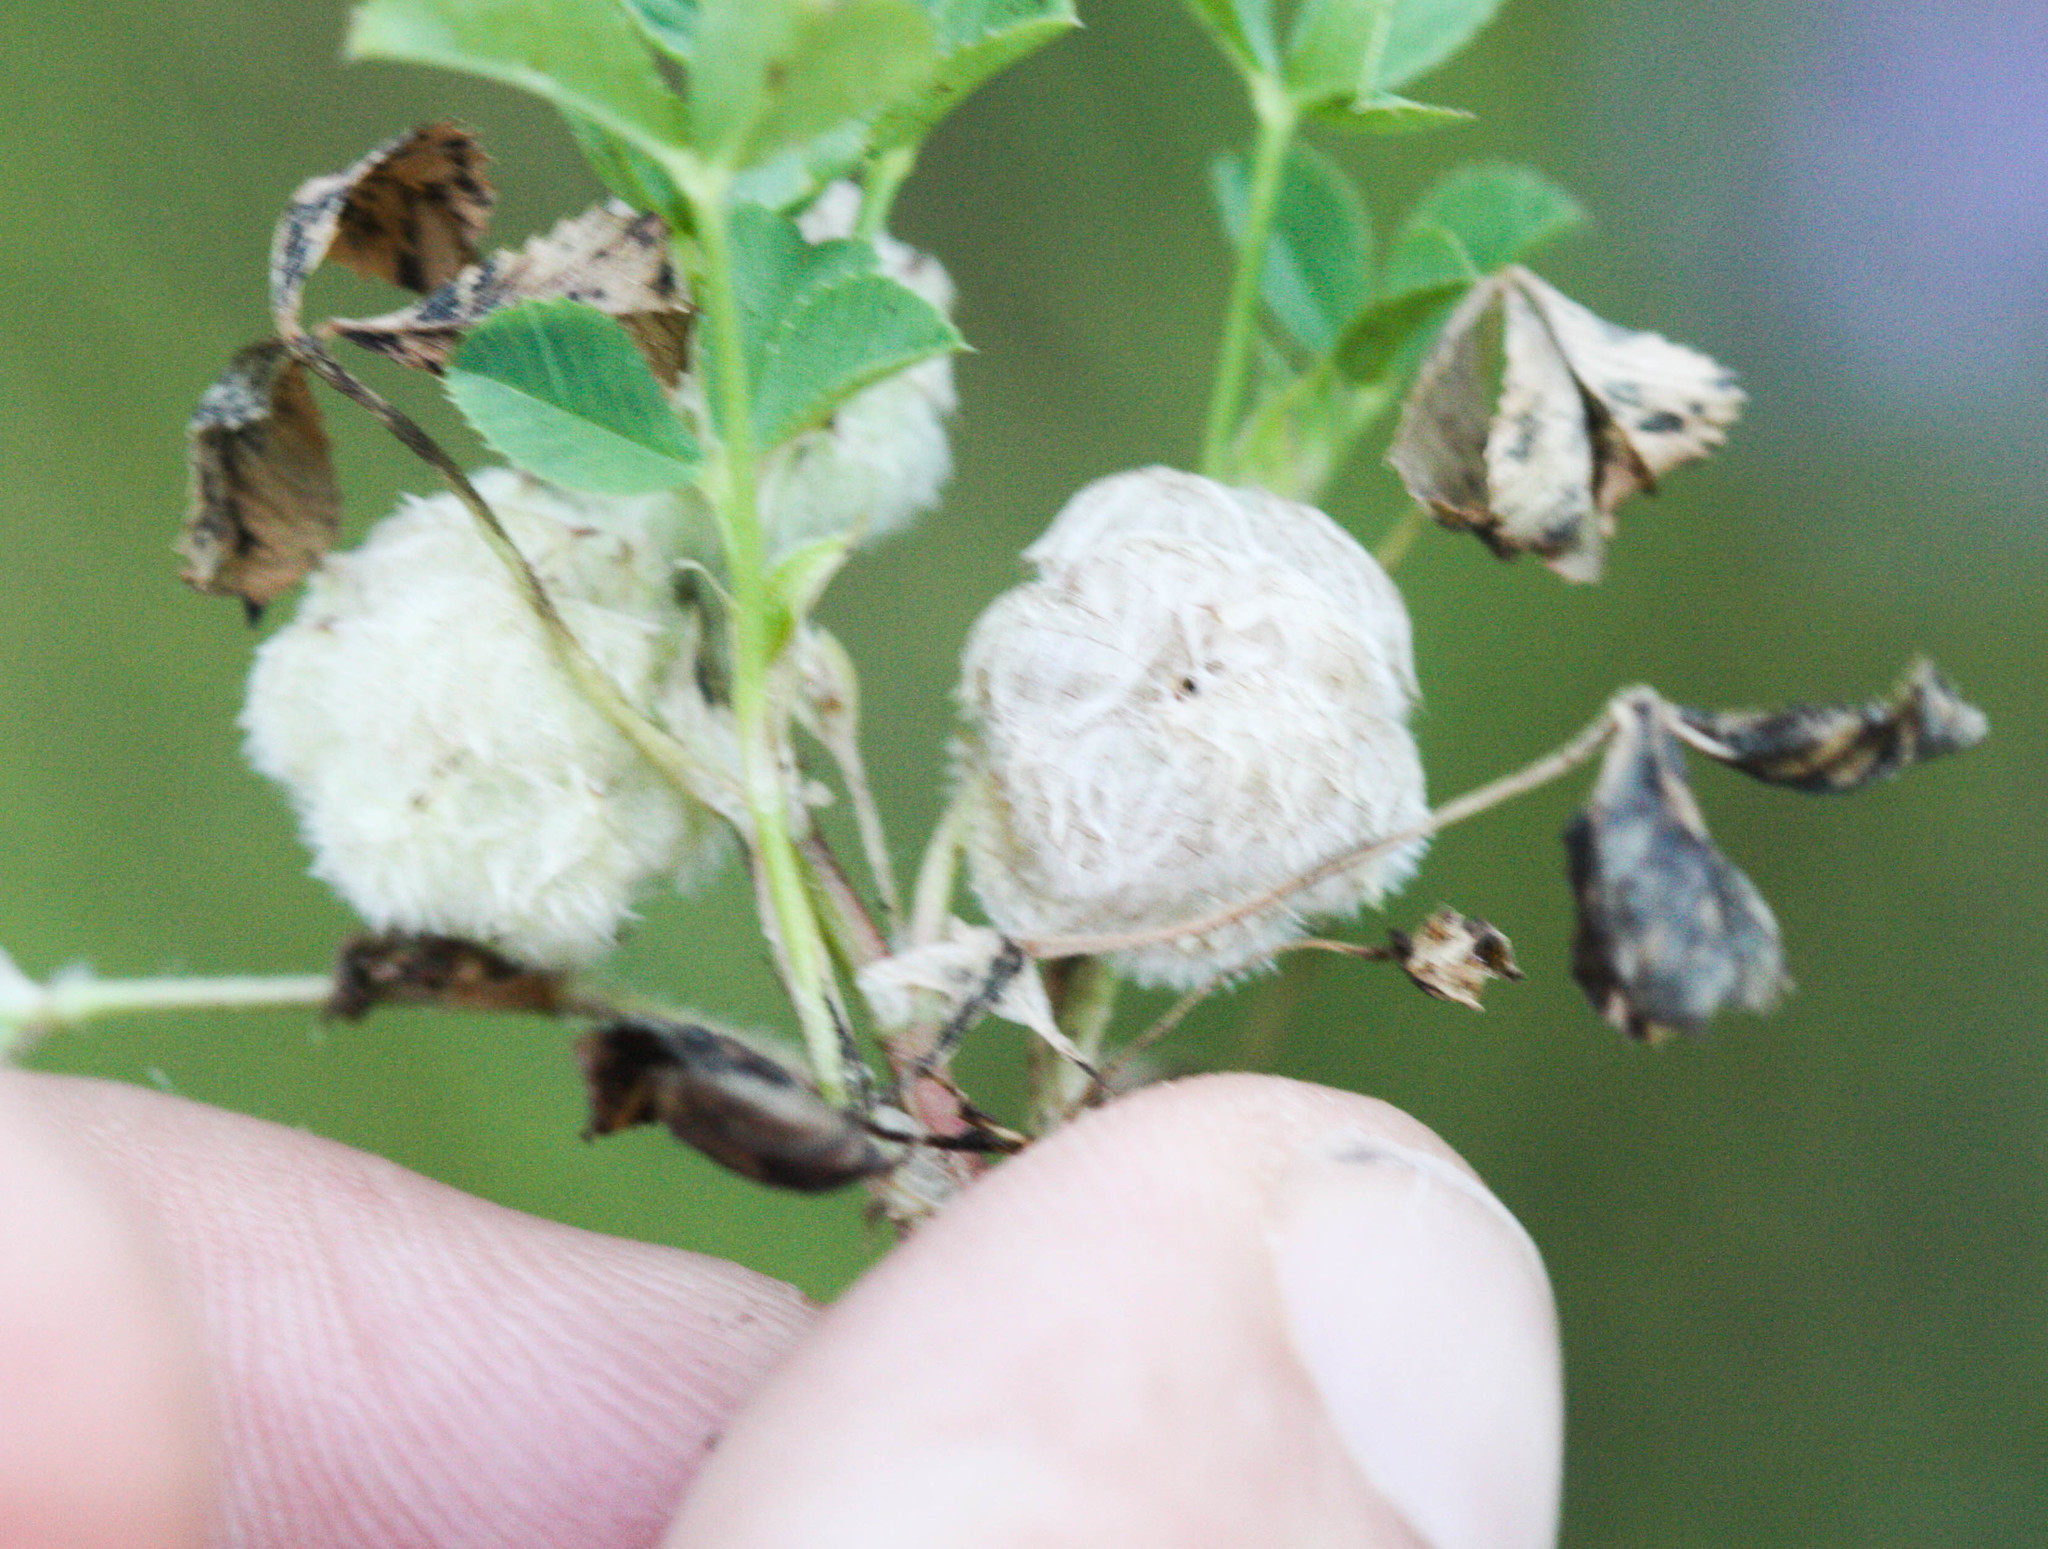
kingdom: Plantae
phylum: Tracheophyta
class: Magnoliopsida
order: Fabales
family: Fabaceae
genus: Trifolium
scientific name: Trifolium tomentosum
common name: Woolly clover
